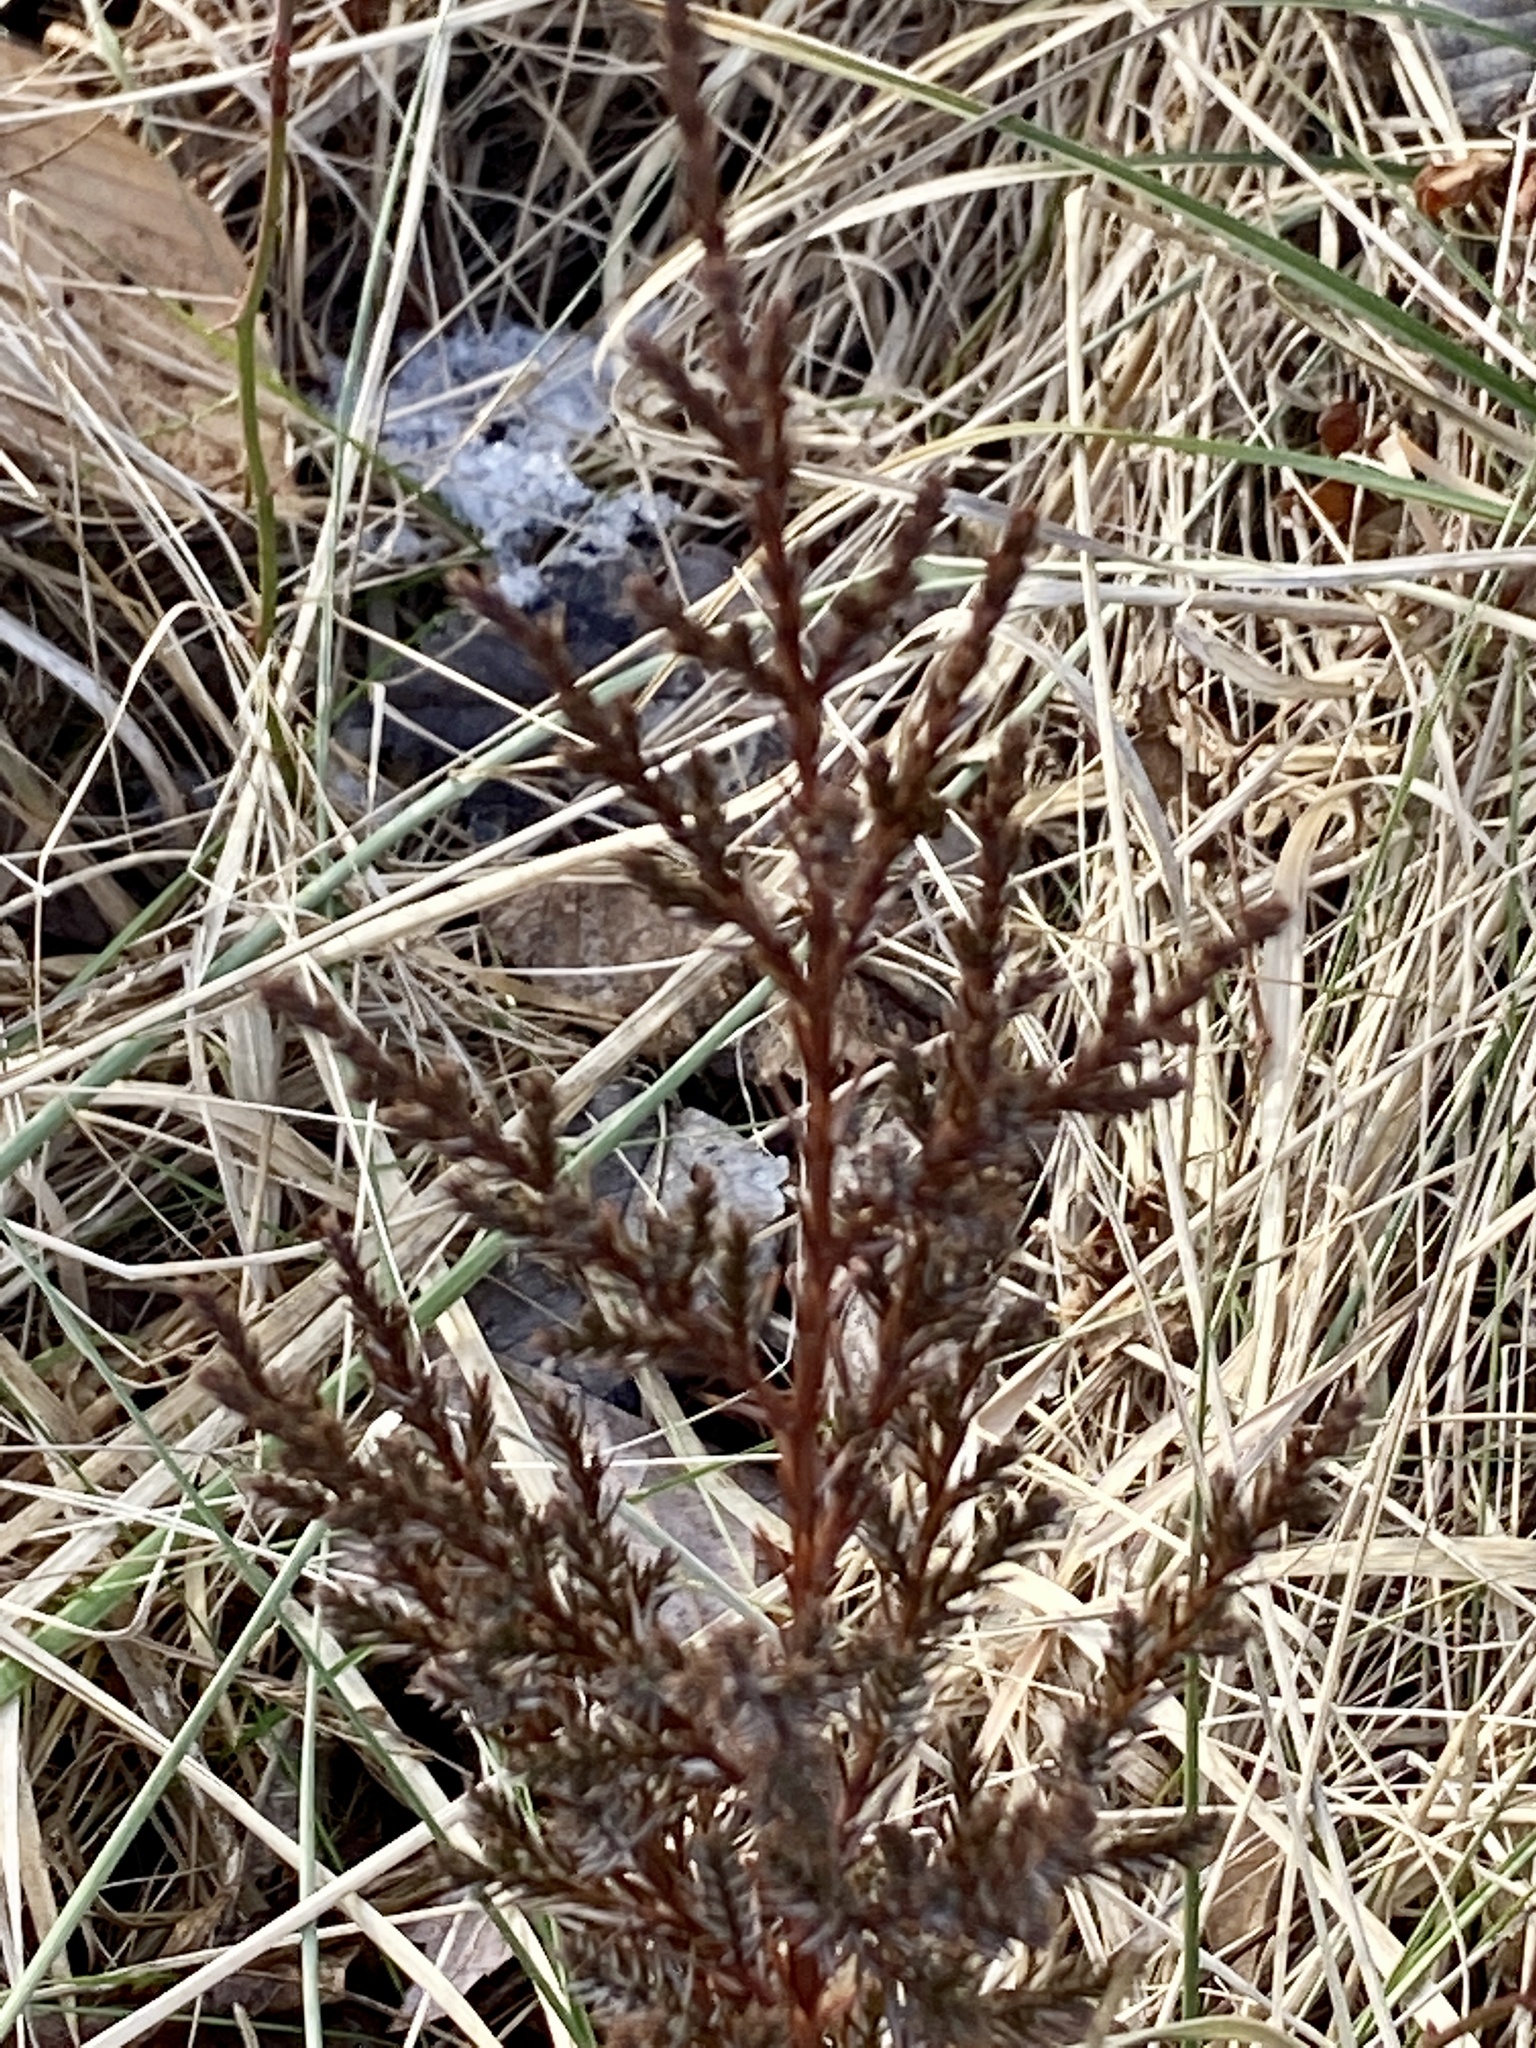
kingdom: Plantae
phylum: Tracheophyta
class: Pinopsida
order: Pinales
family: Cupressaceae
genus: Juniperus
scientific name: Juniperus virginiana
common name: Red juniper
